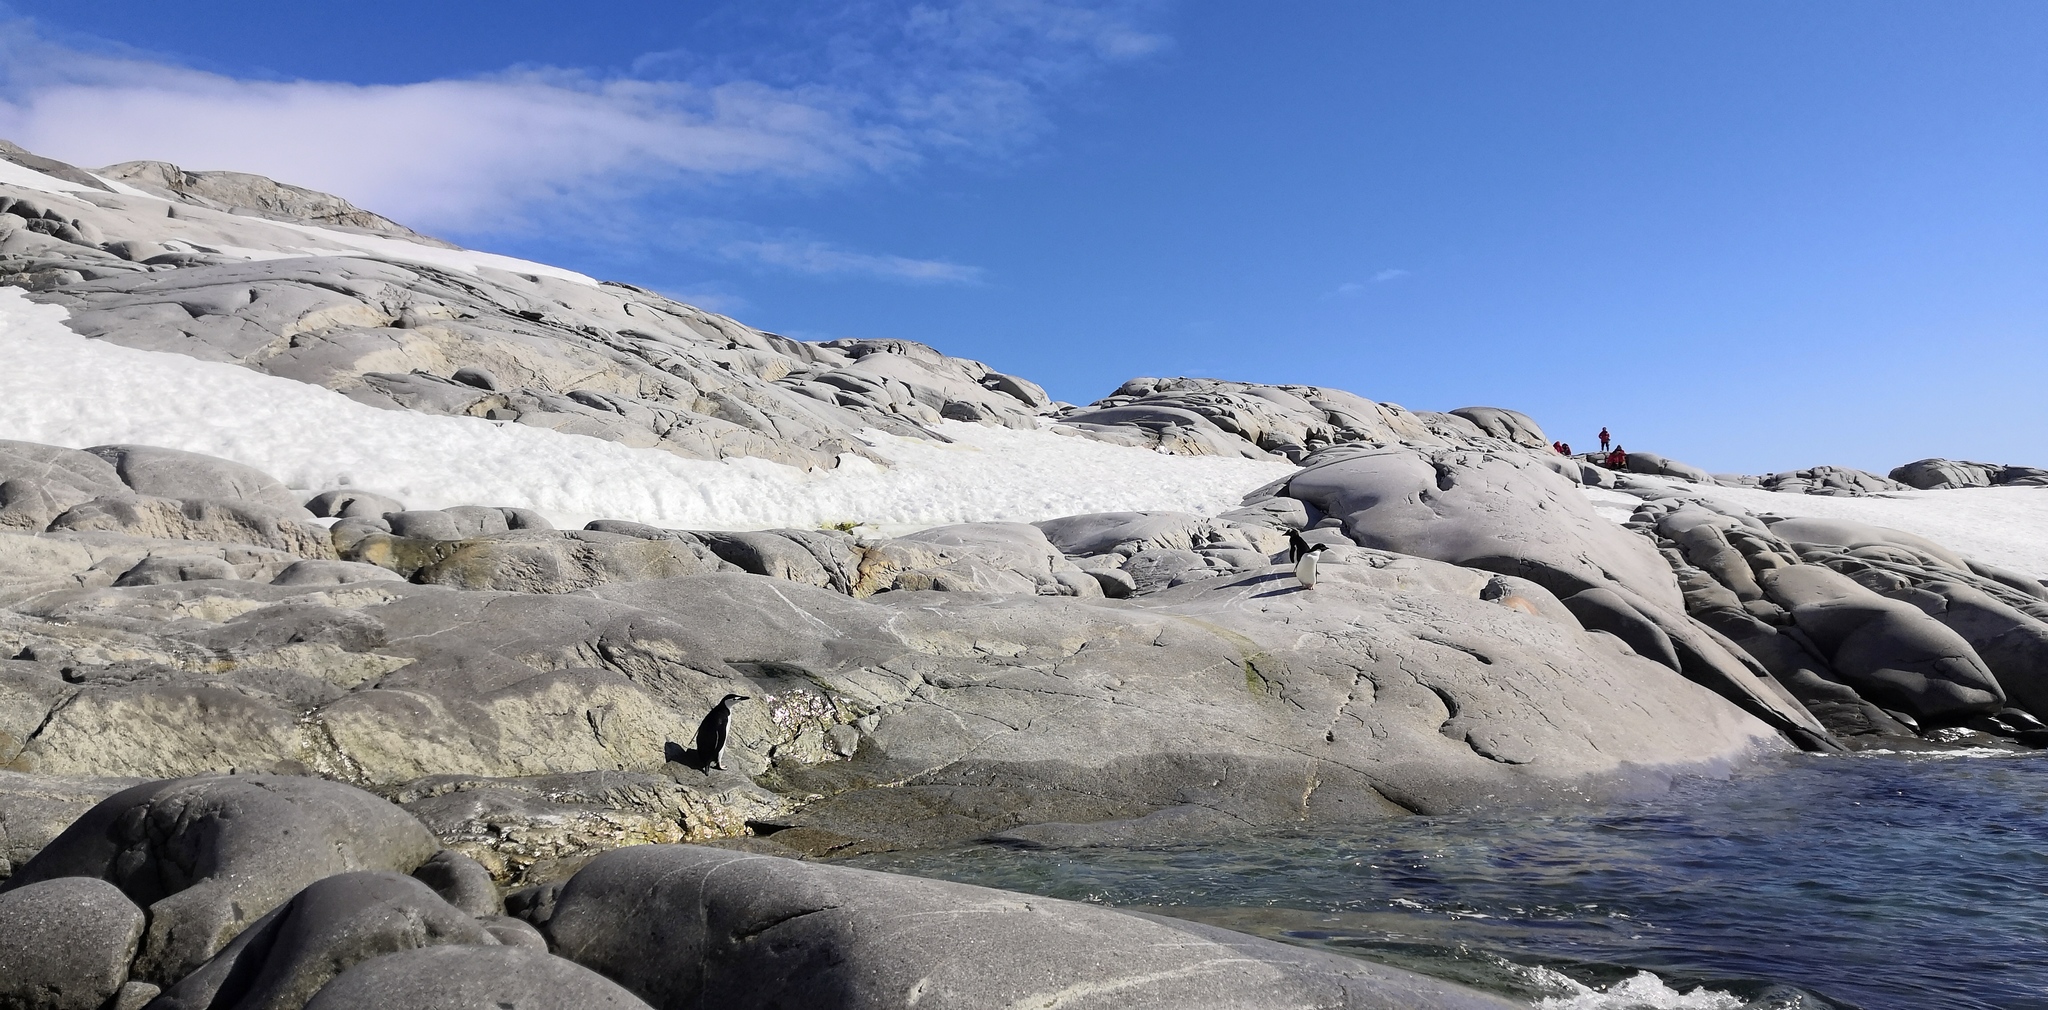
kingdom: Animalia
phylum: Chordata
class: Aves
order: Sphenisciformes
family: Spheniscidae
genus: Pygoscelis
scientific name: Pygoscelis antarcticus
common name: Chinstrap penguin
